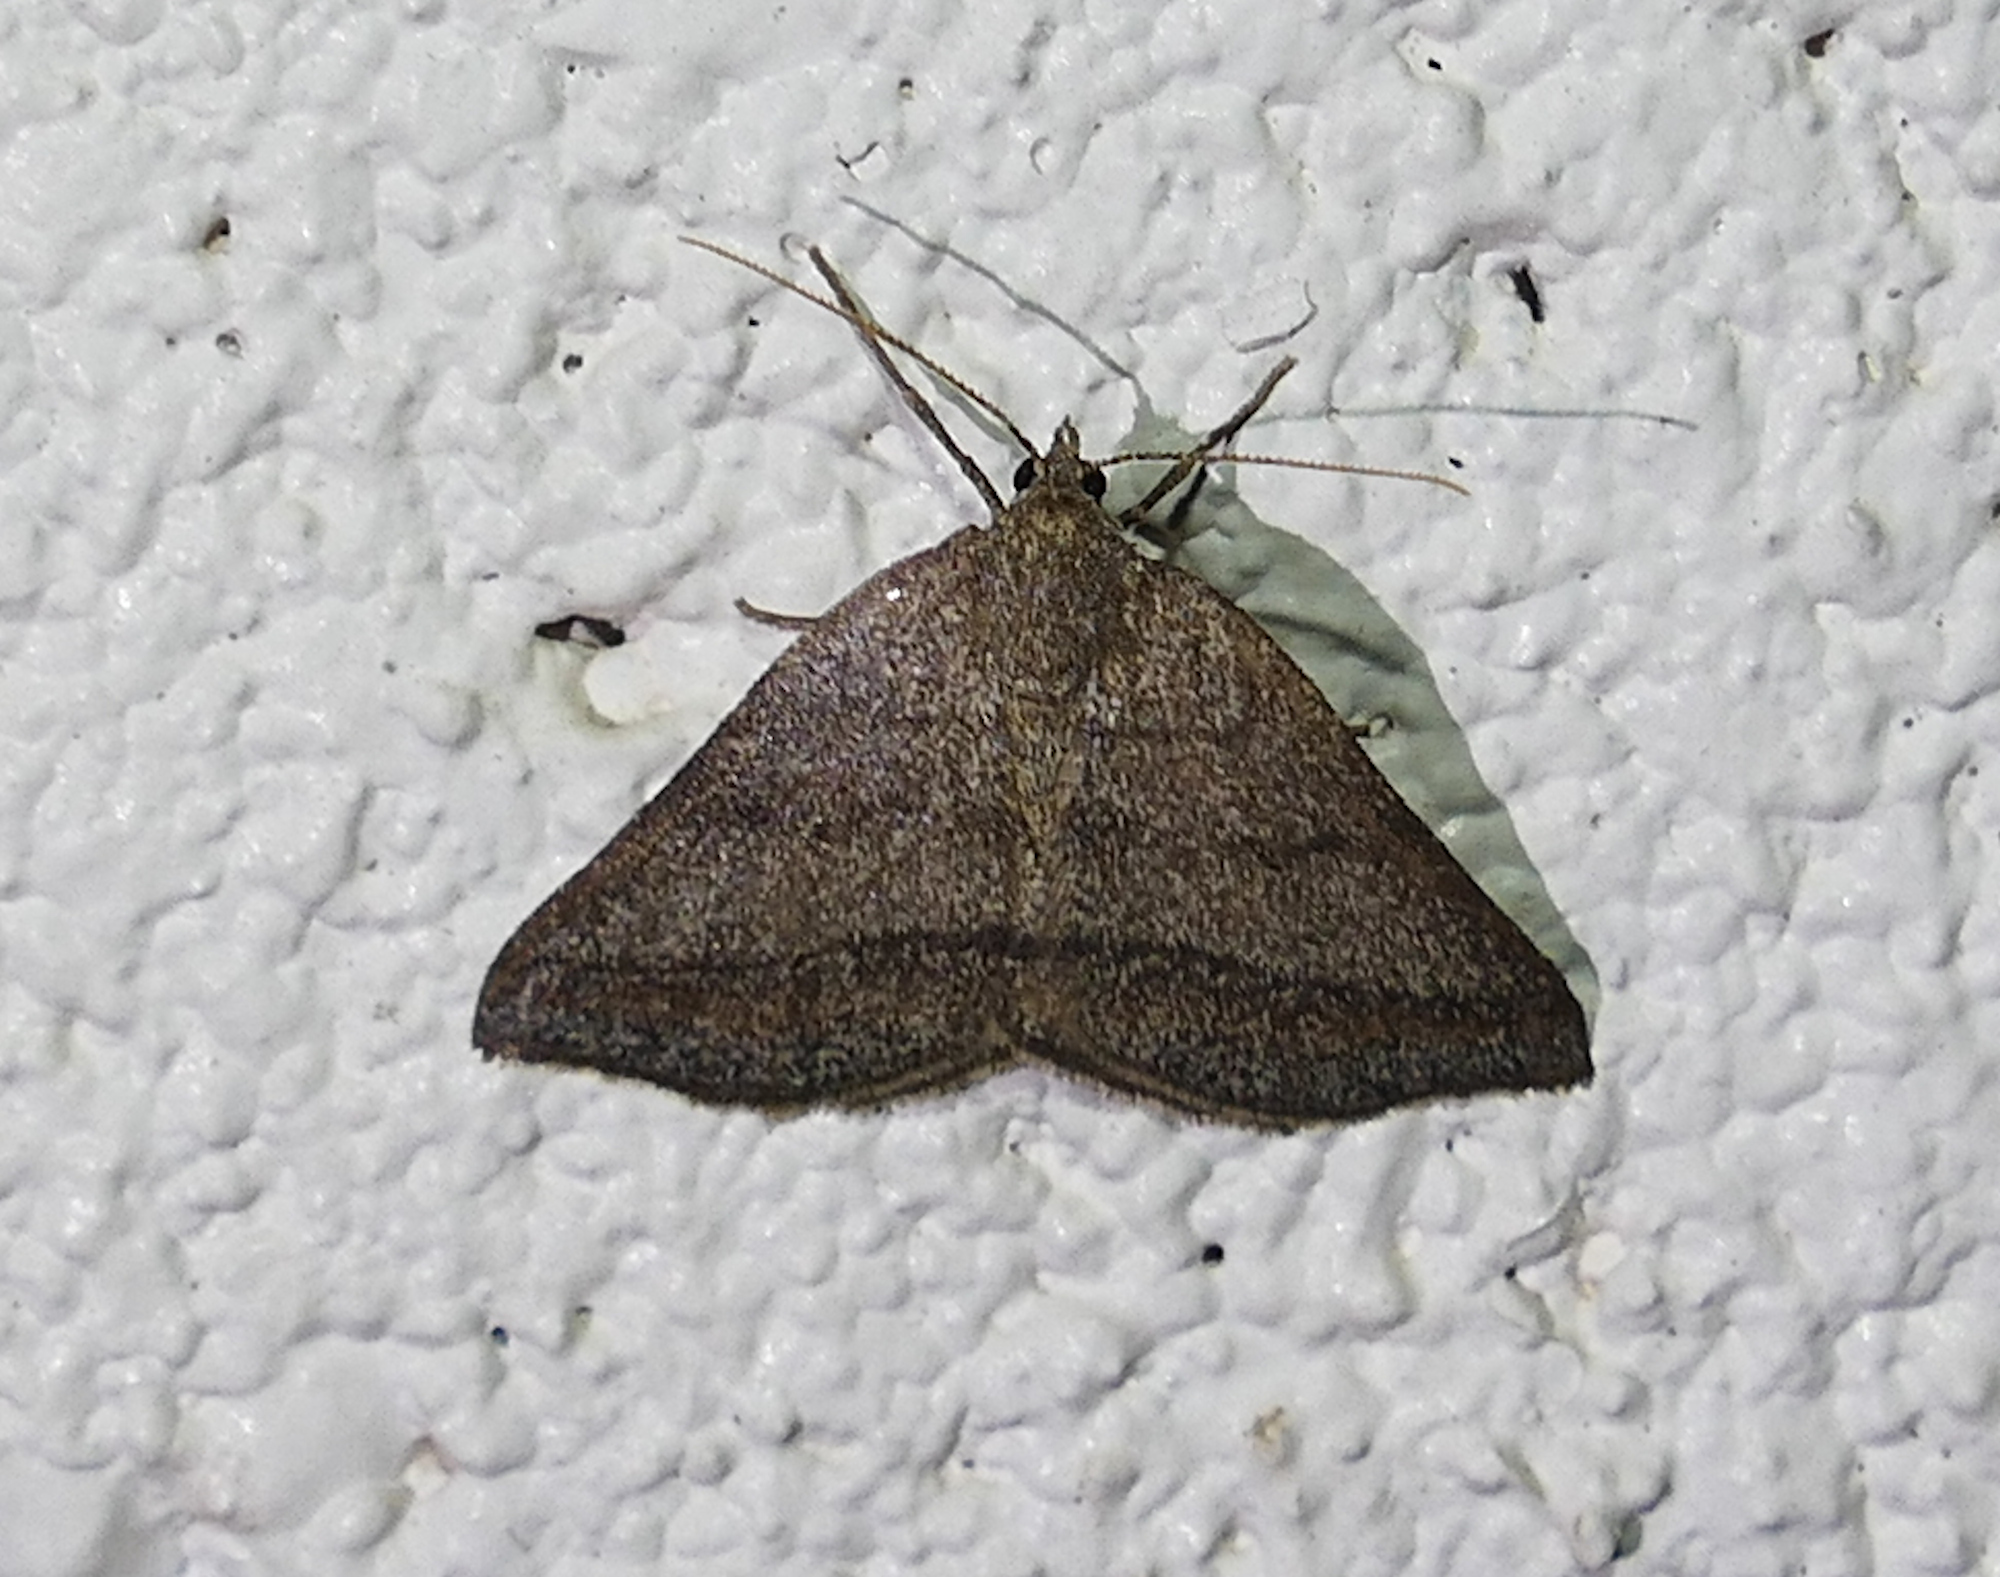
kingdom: Animalia
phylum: Arthropoda
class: Insecta
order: Lepidoptera
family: Geometridae
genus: Macaria
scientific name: Macaria varadaria
